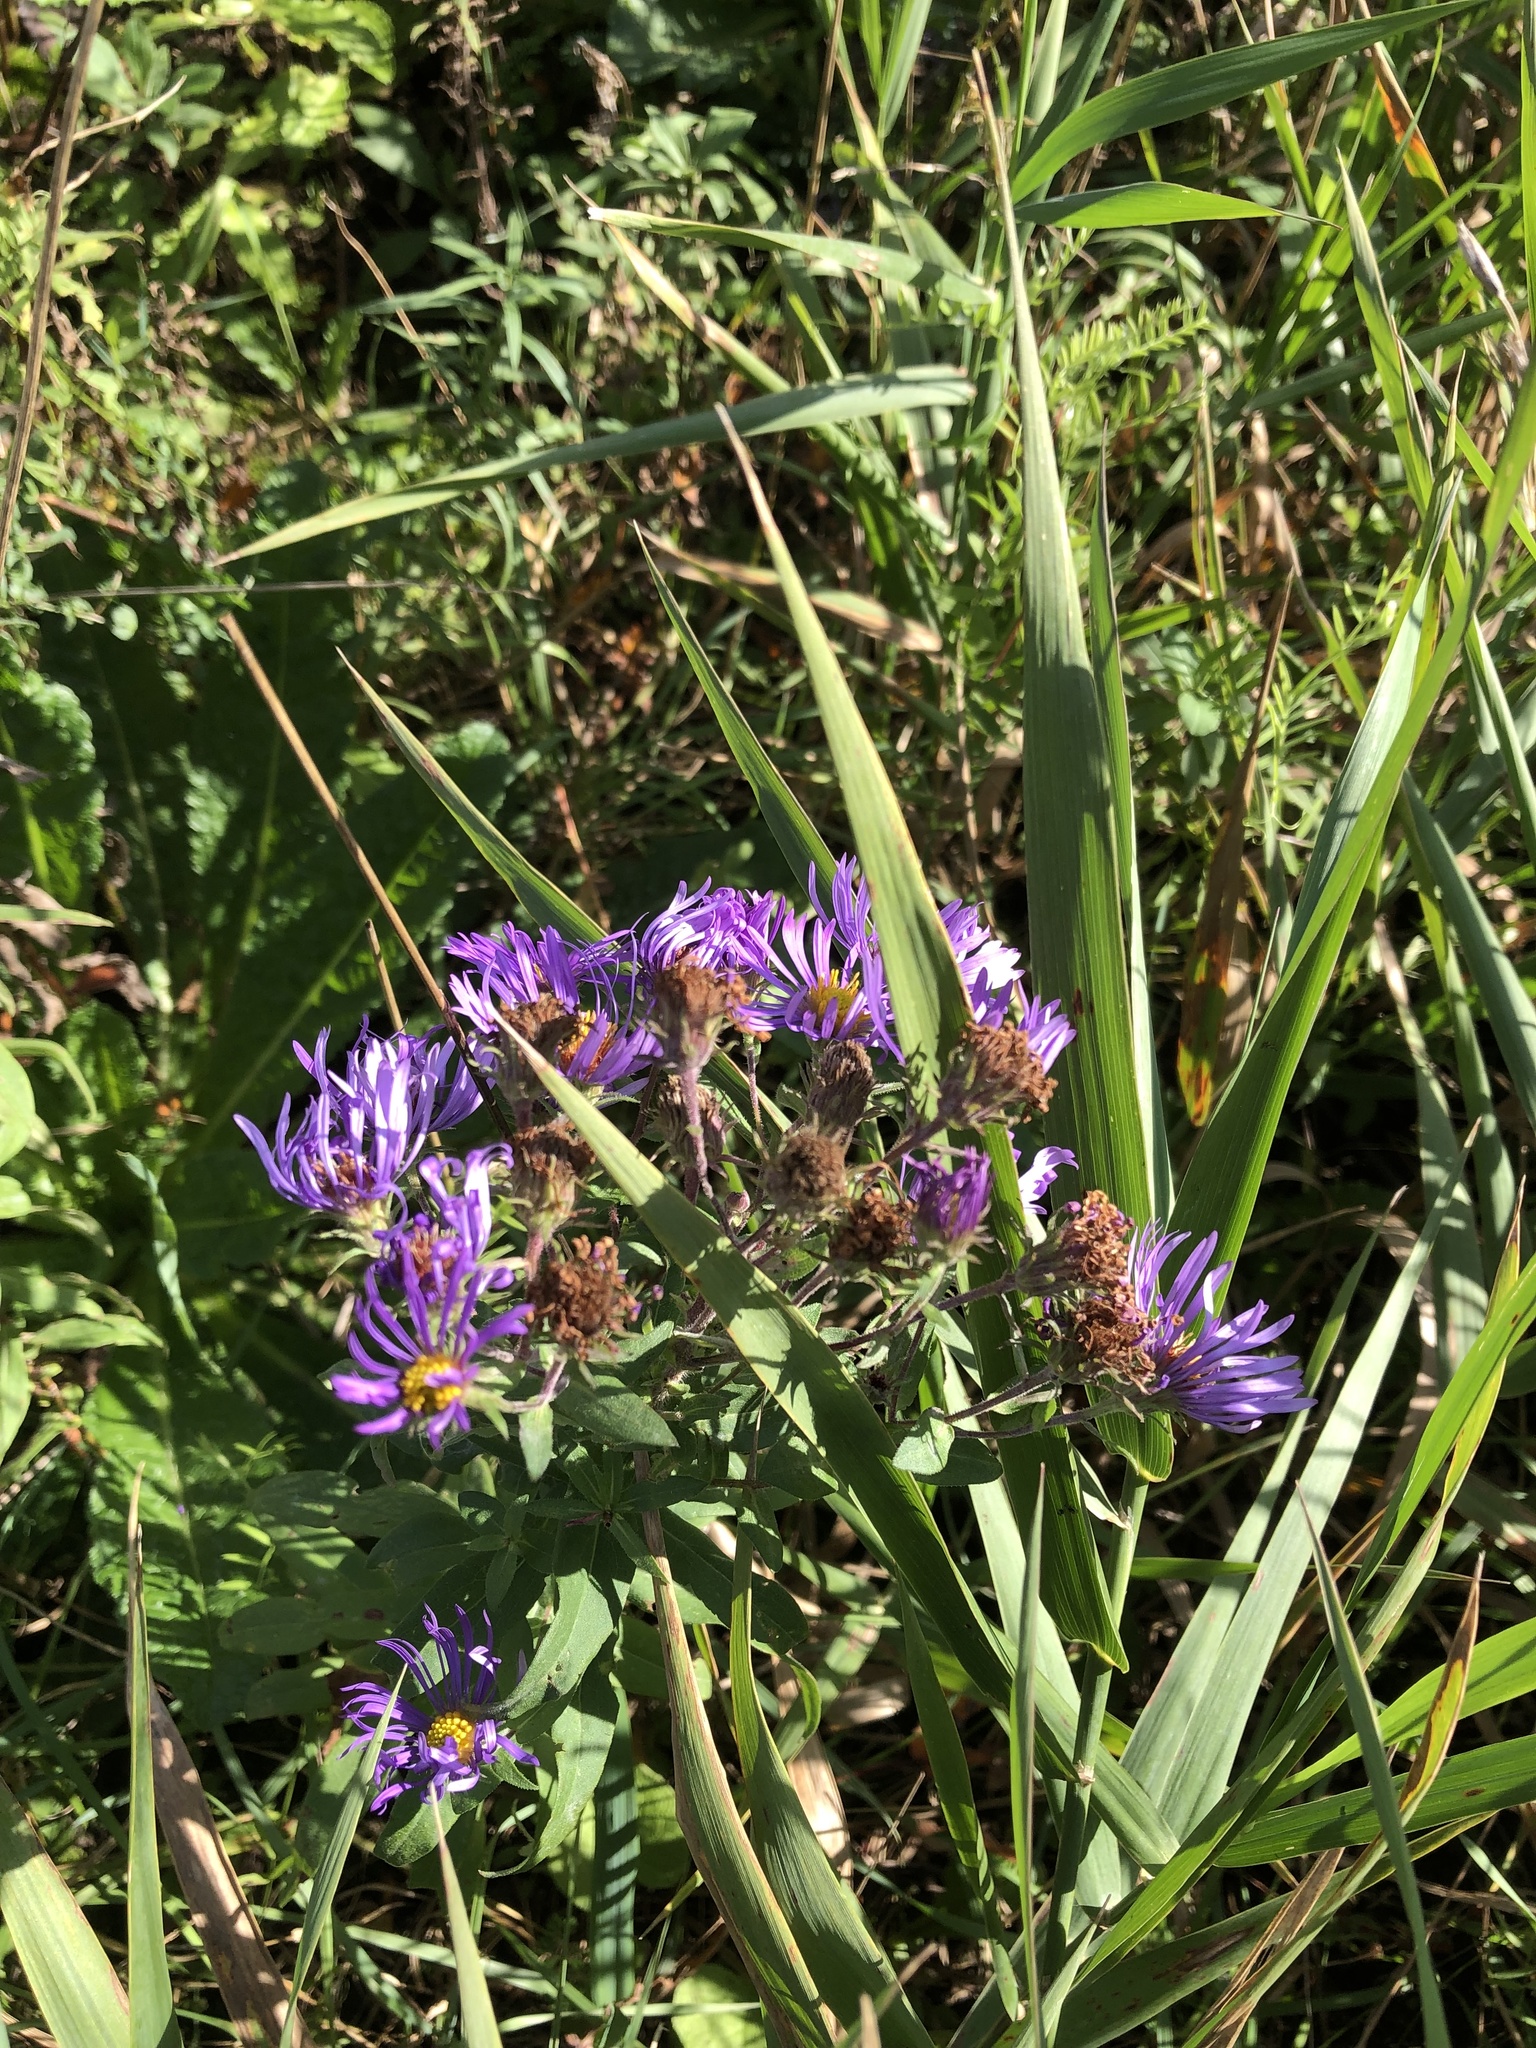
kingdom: Plantae
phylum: Tracheophyta
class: Magnoliopsida
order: Asterales
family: Asteraceae
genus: Symphyotrichum
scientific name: Symphyotrichum novae-angliae
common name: Michaelmas daisy
